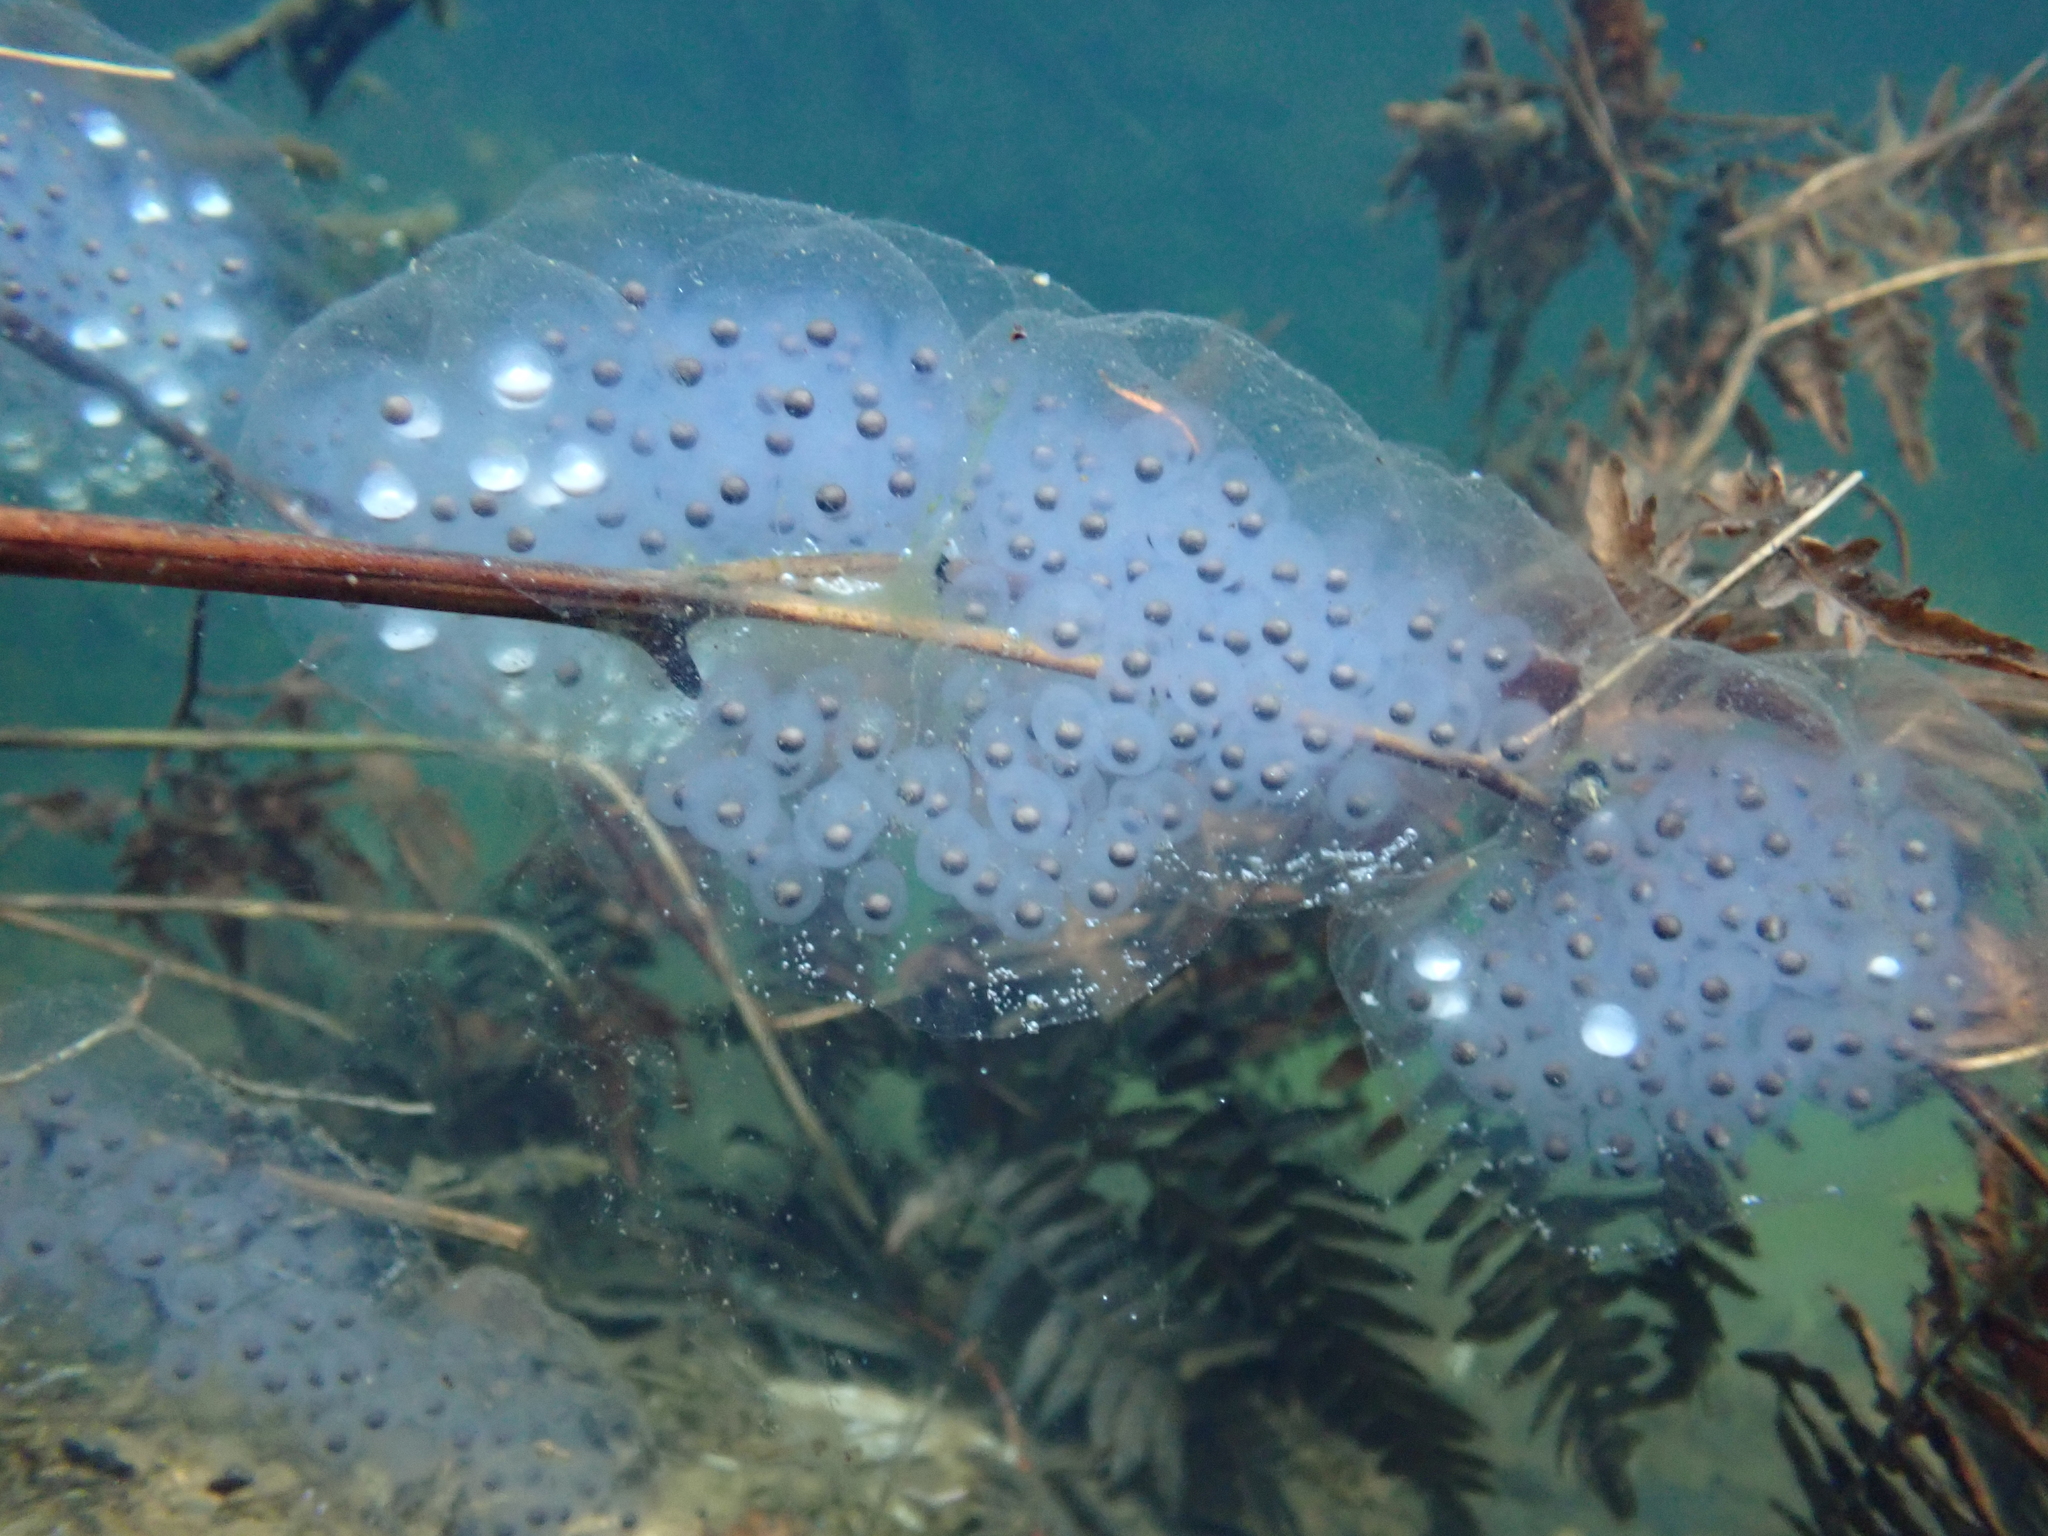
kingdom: Animalia
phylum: Chordata
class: Amphibia
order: Caudata
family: Ambystomatidae
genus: Ambystoma
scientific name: Ambystoma maculatum
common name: Spotted salamander
